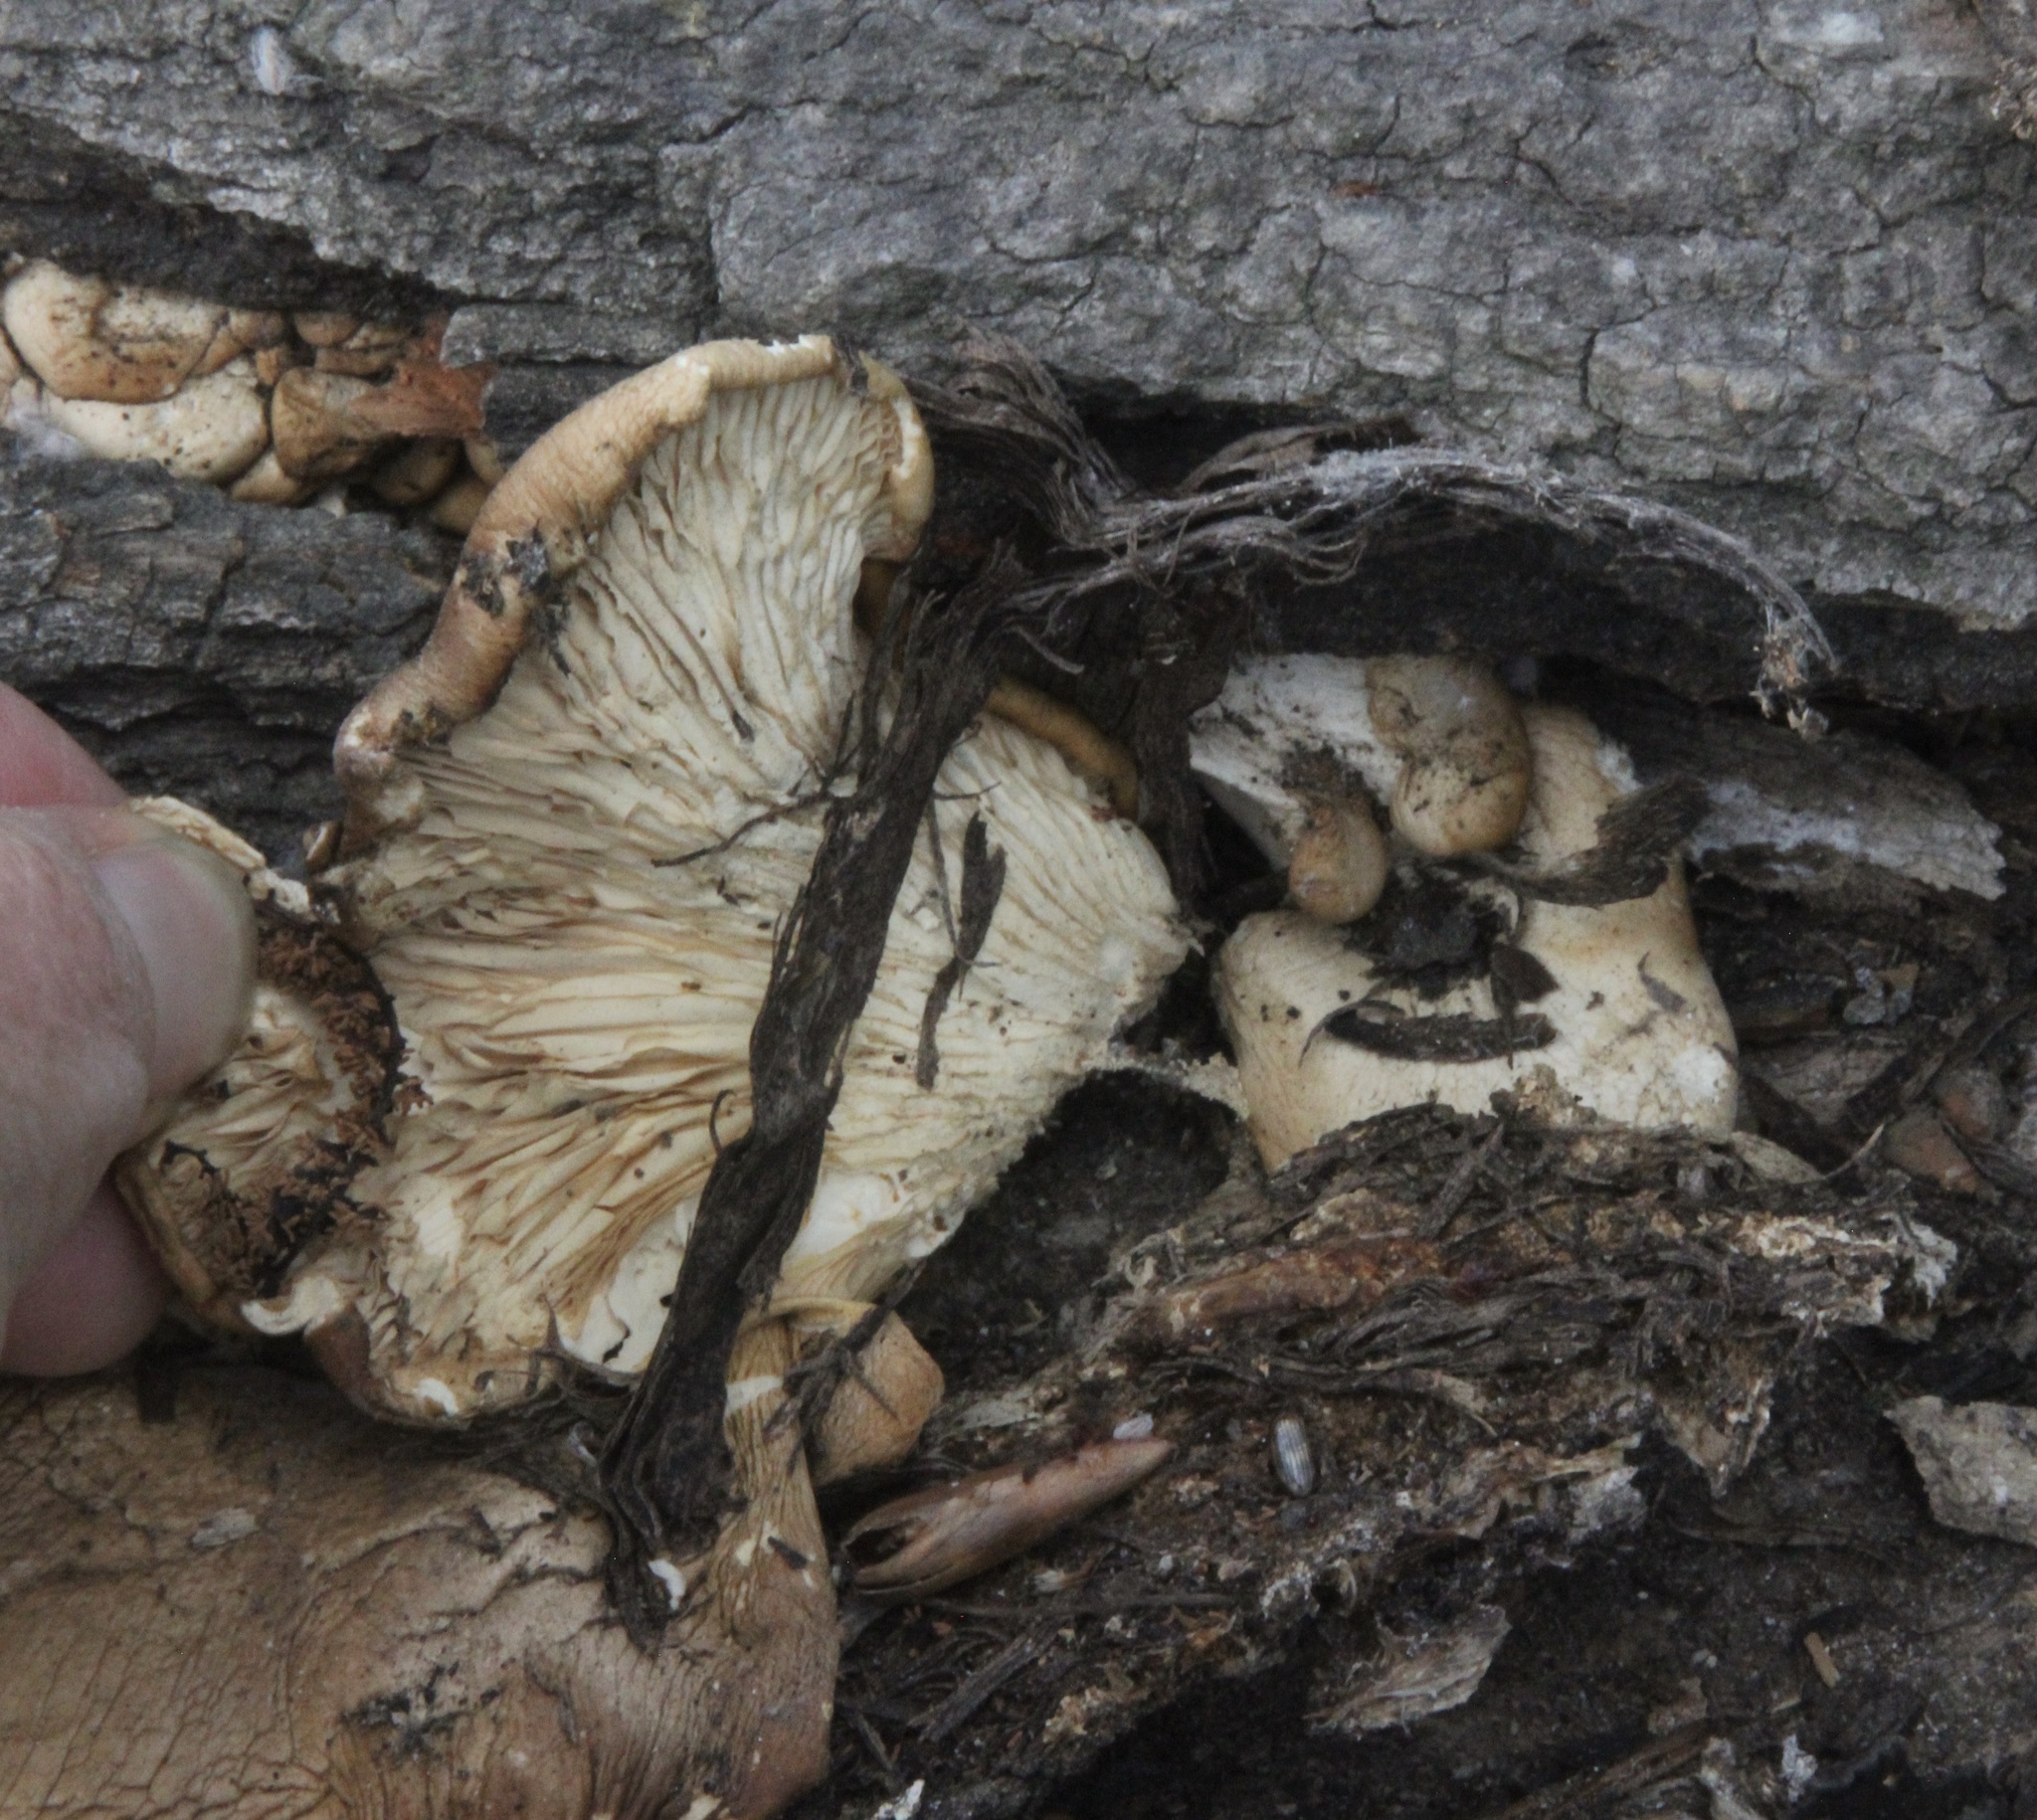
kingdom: Fungi
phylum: Basidiomycota
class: Agaricomycetes
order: Agaricales
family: Pleurotaceae
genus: Pleurotus
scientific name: Pleurotus pulmonarius
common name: Pale oyster
